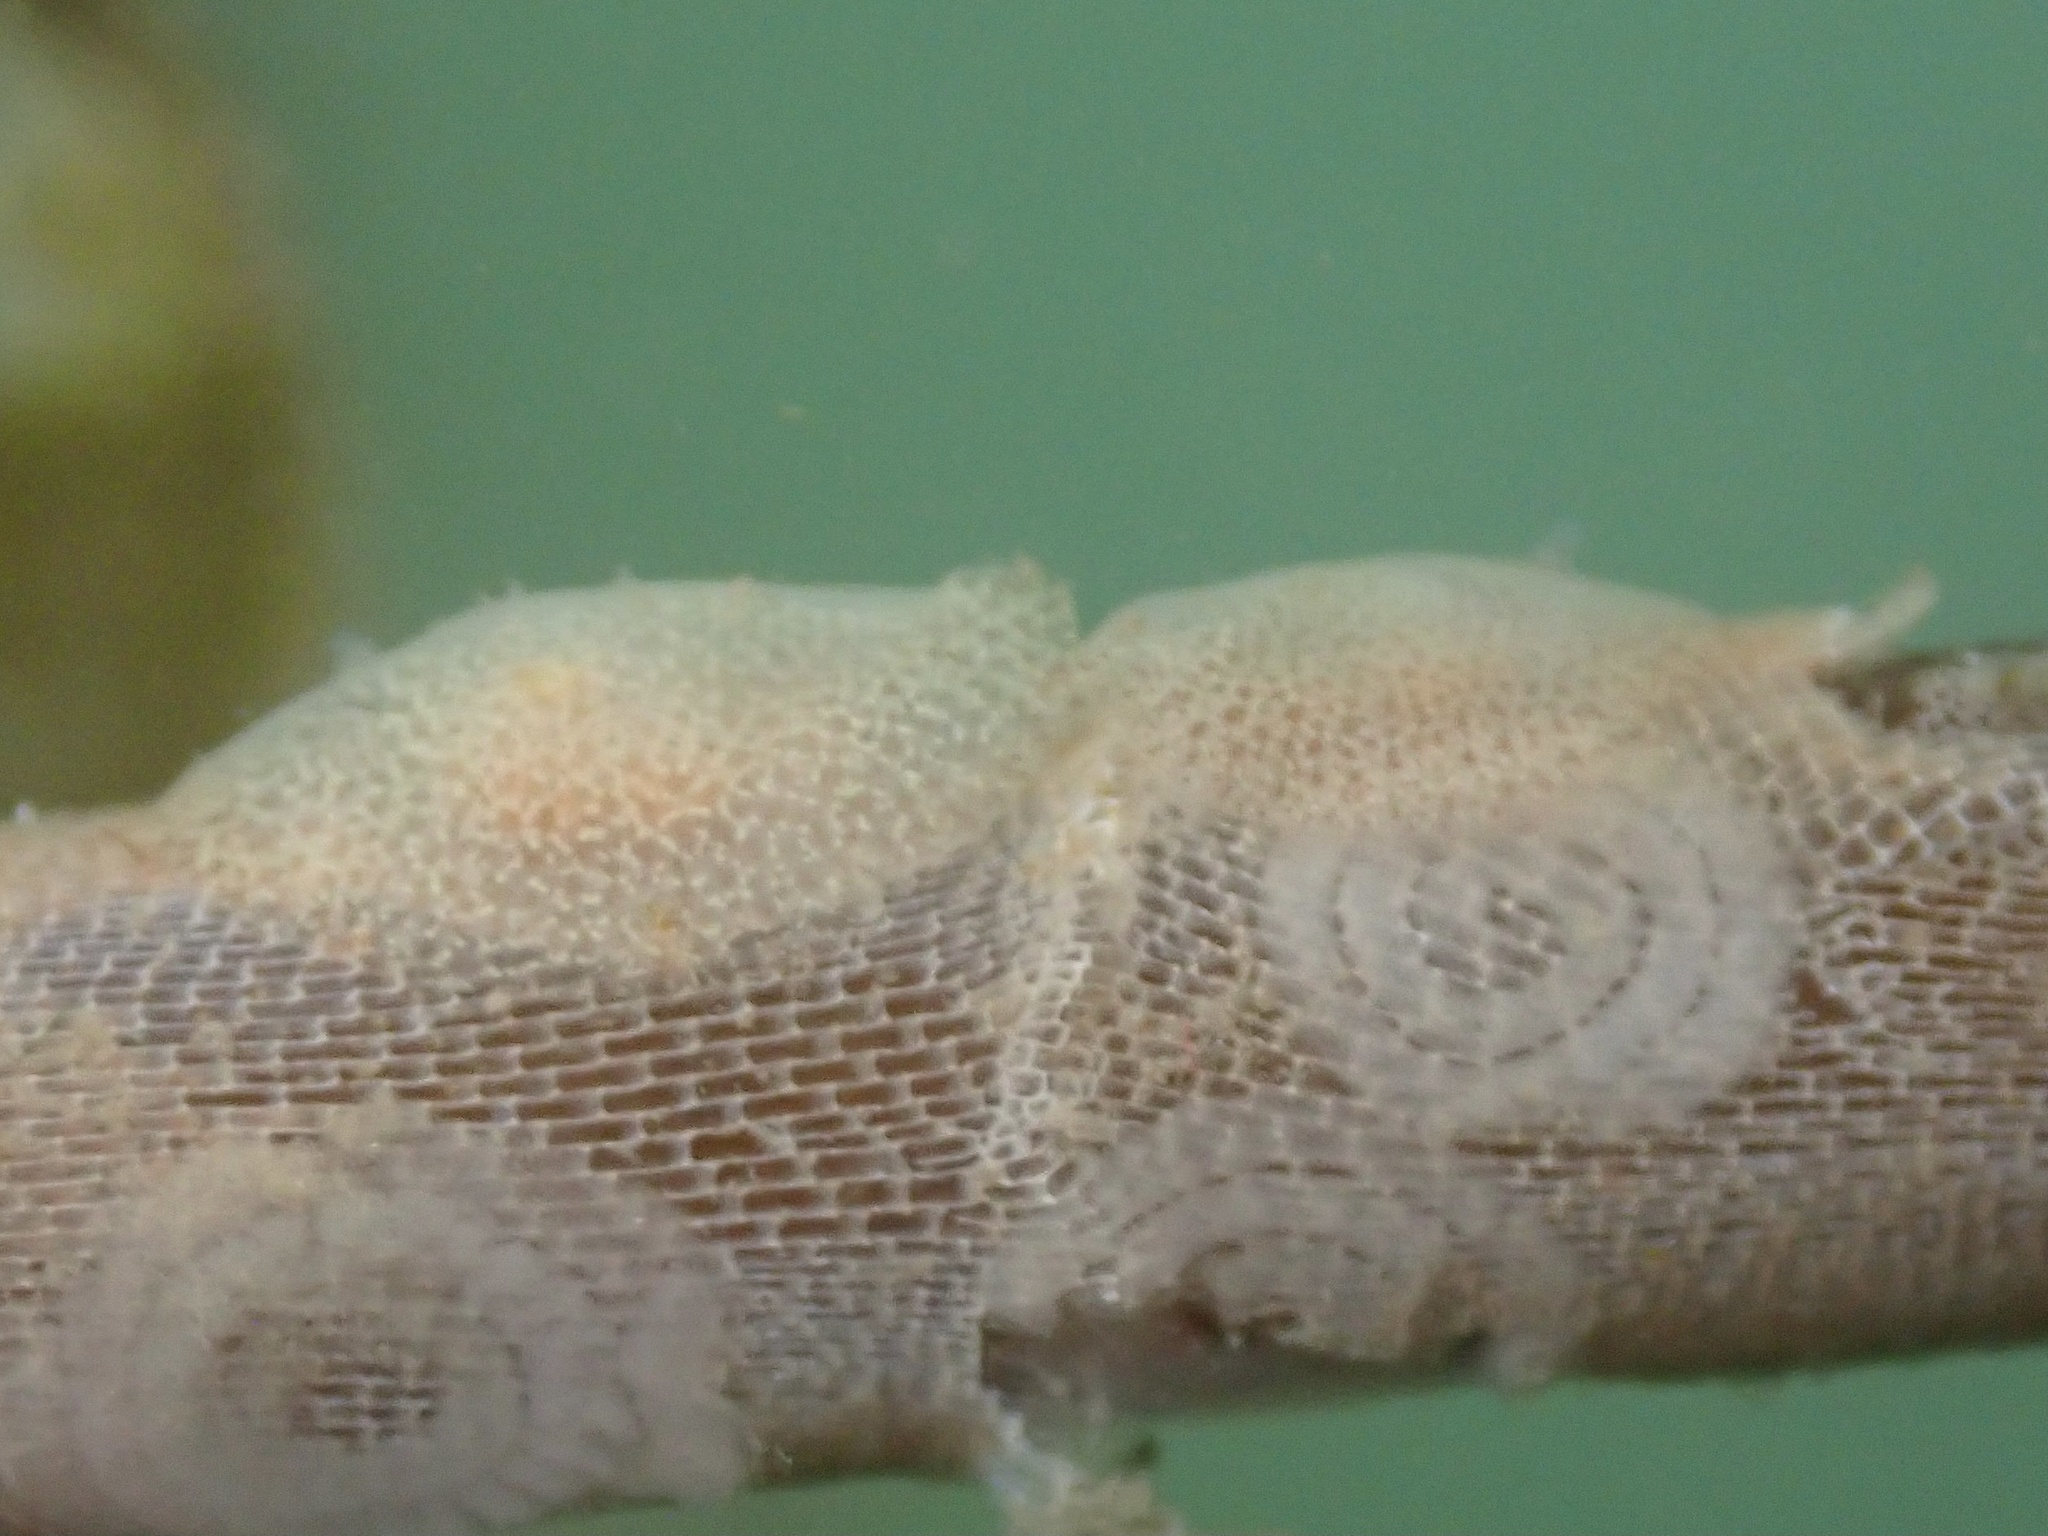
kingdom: Animalia
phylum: Mollusca
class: Gastropoda
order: Nudibranchia
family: Corambidae
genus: Corambe
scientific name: Corambe pacifica
